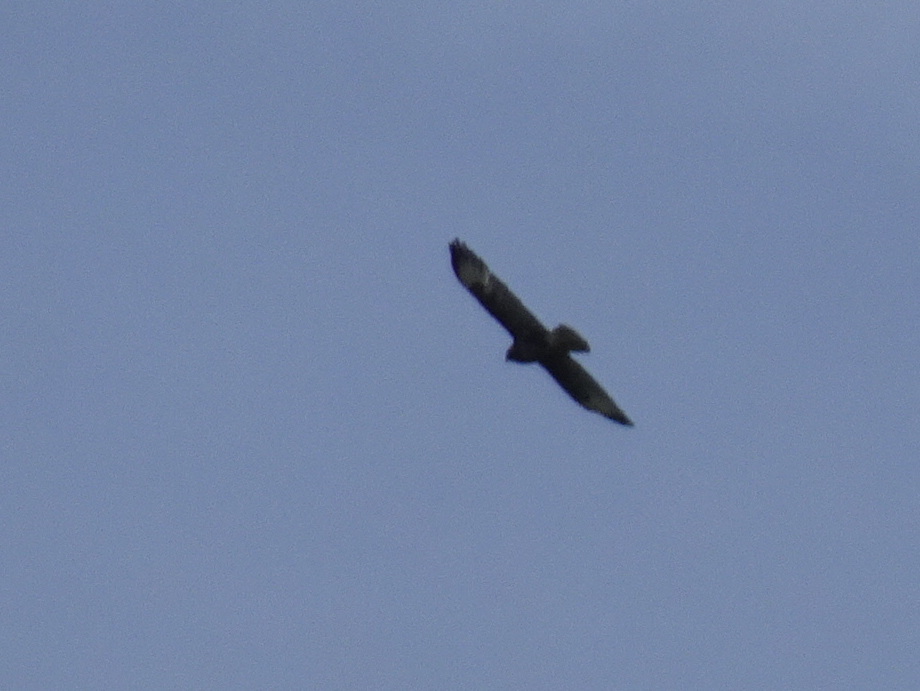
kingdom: Animalia
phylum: Chordata
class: Aves
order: Accipitriformes
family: Accipitridae
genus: Buteo
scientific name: Buteo buteo
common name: Common buzzard
